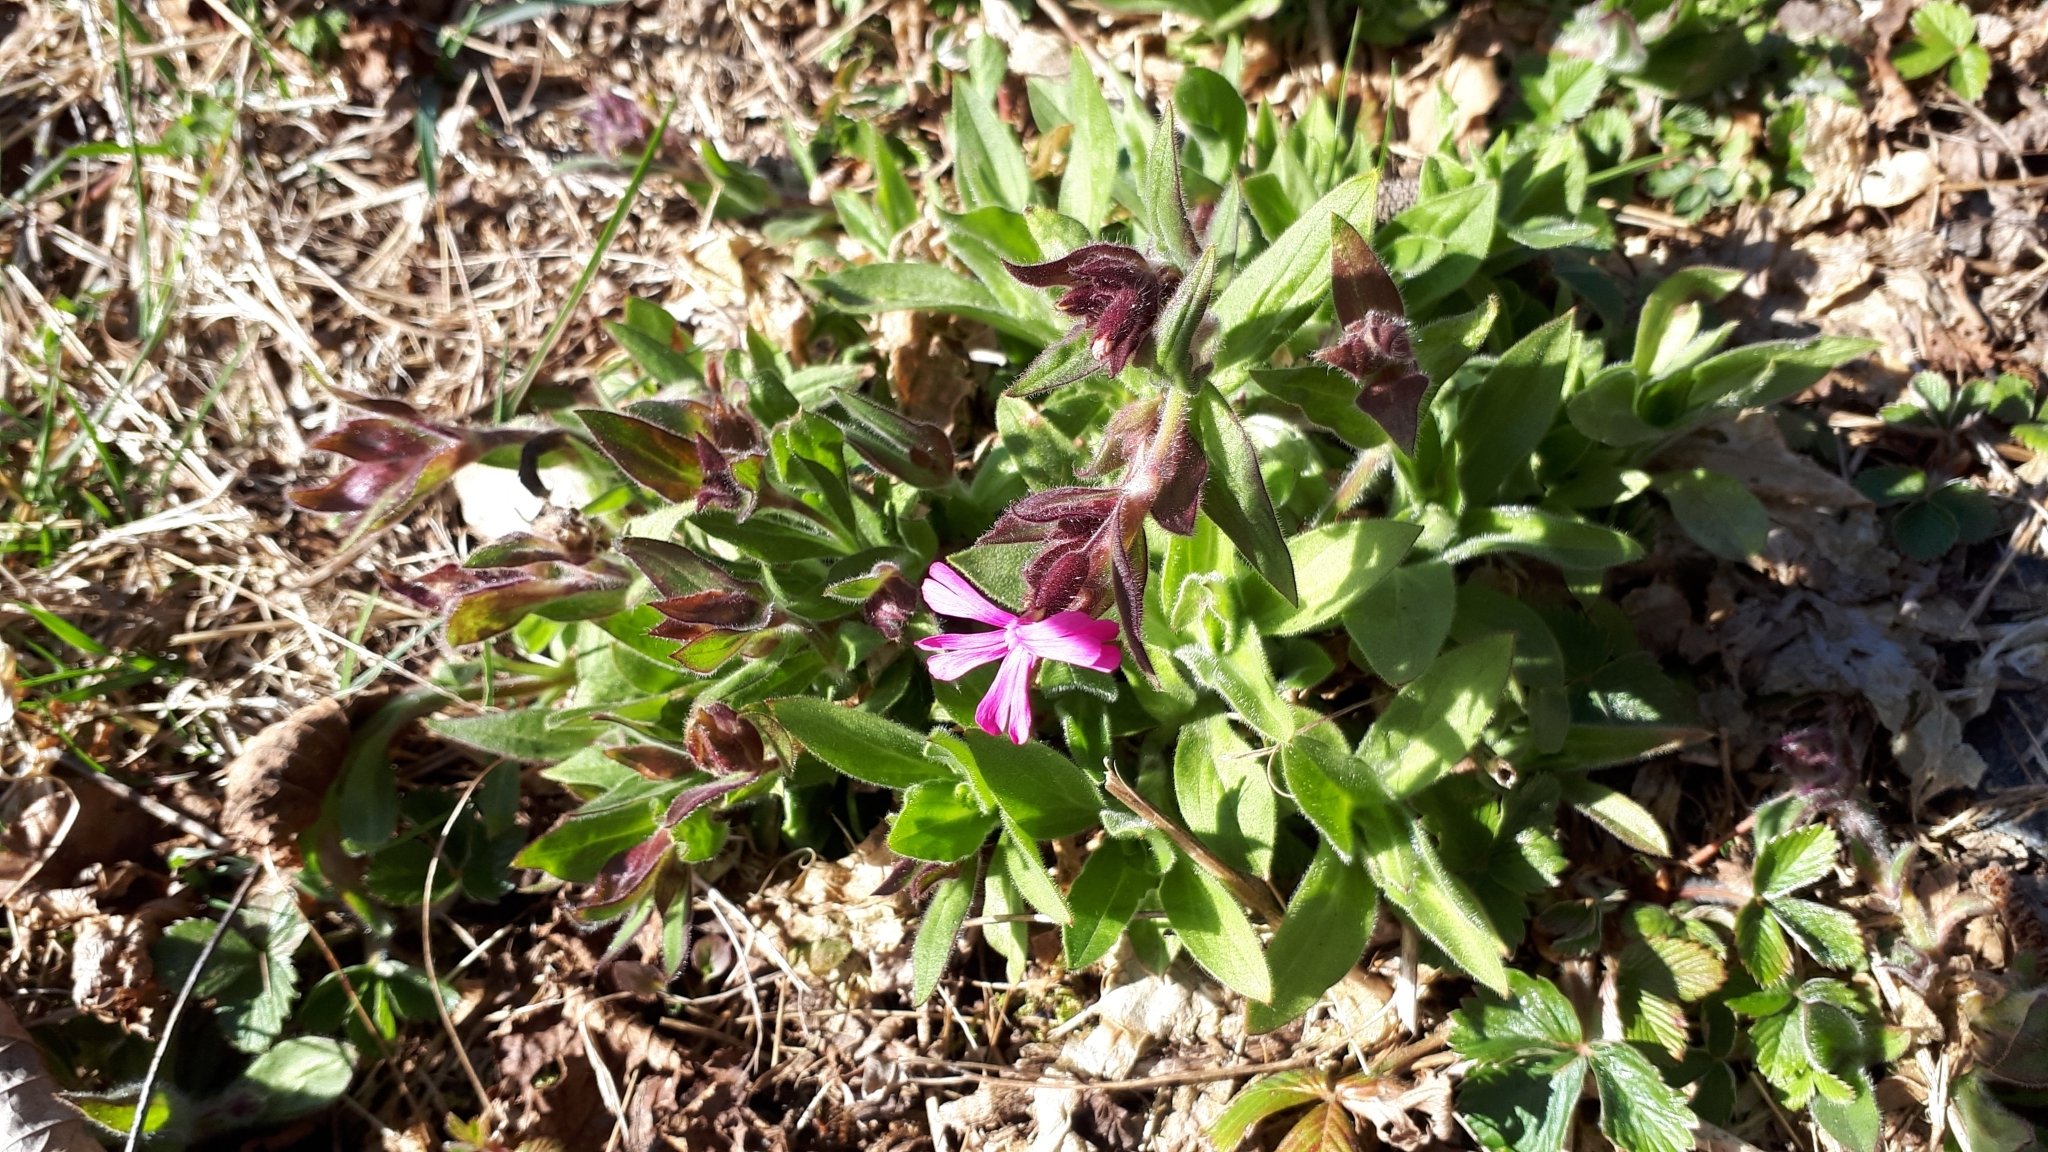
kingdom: Plantae
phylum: Tracheophyta
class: Magnoliopsida
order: Caryophyllales
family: Caryophyllaceae
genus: Silene
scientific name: Silene dioica
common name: Red campion
